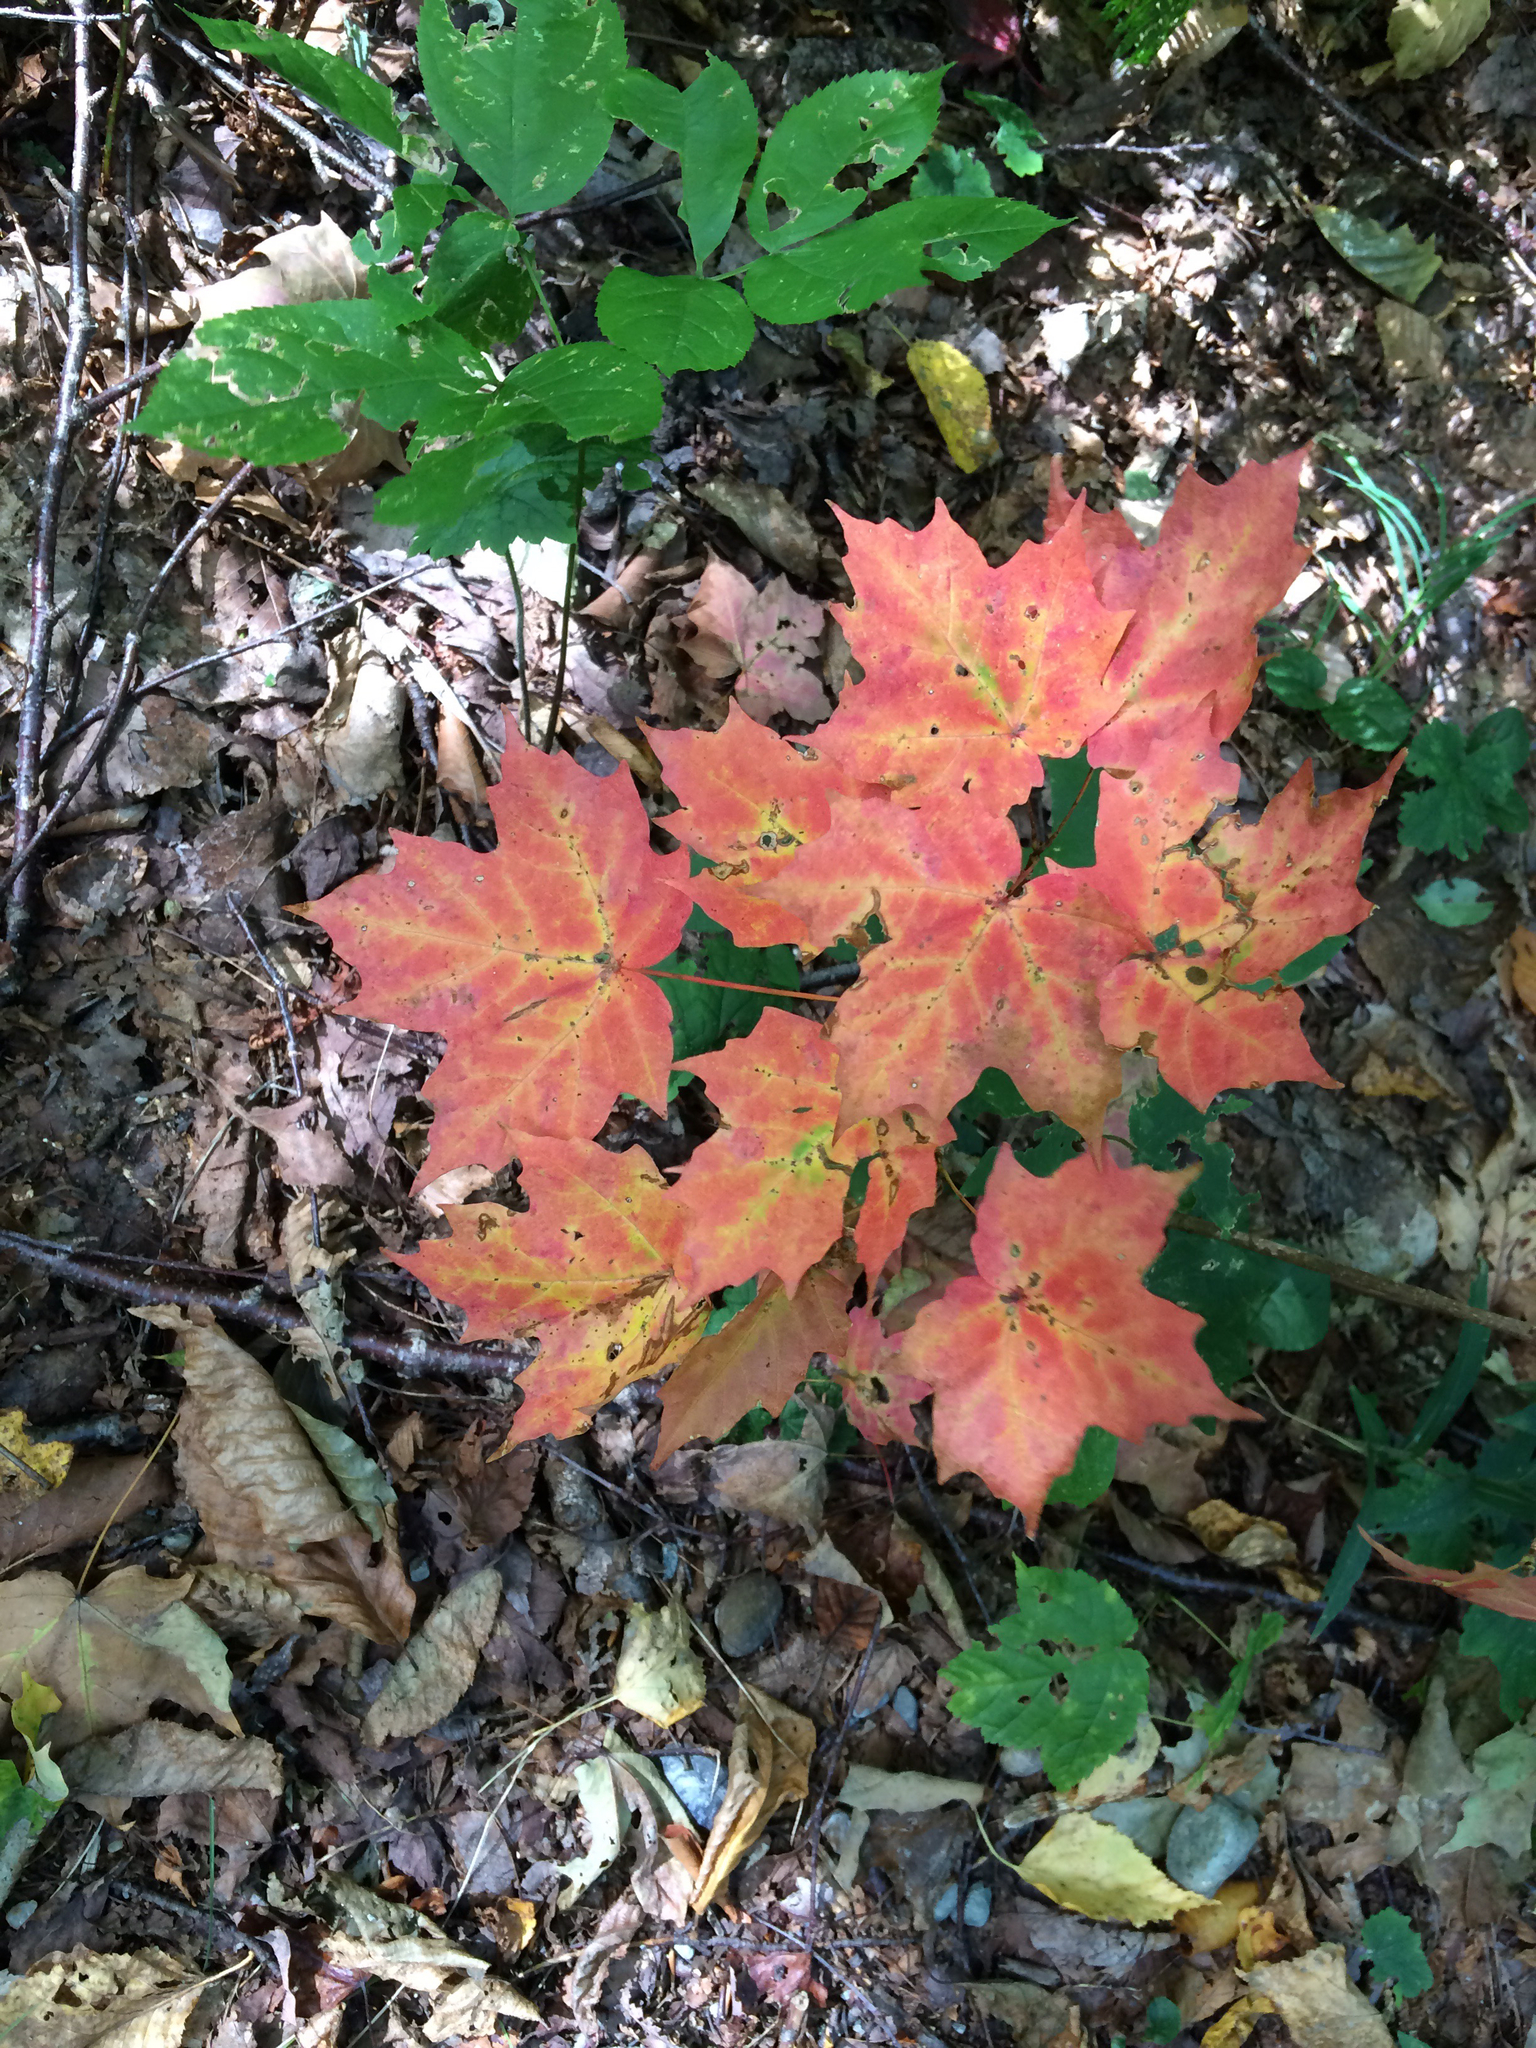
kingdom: Plantae
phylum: Tracheophyta
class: Magnoliopsida
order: Sapindales
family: Sapindaceae
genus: Acer
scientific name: Acer saccharum
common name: Sugar maple
